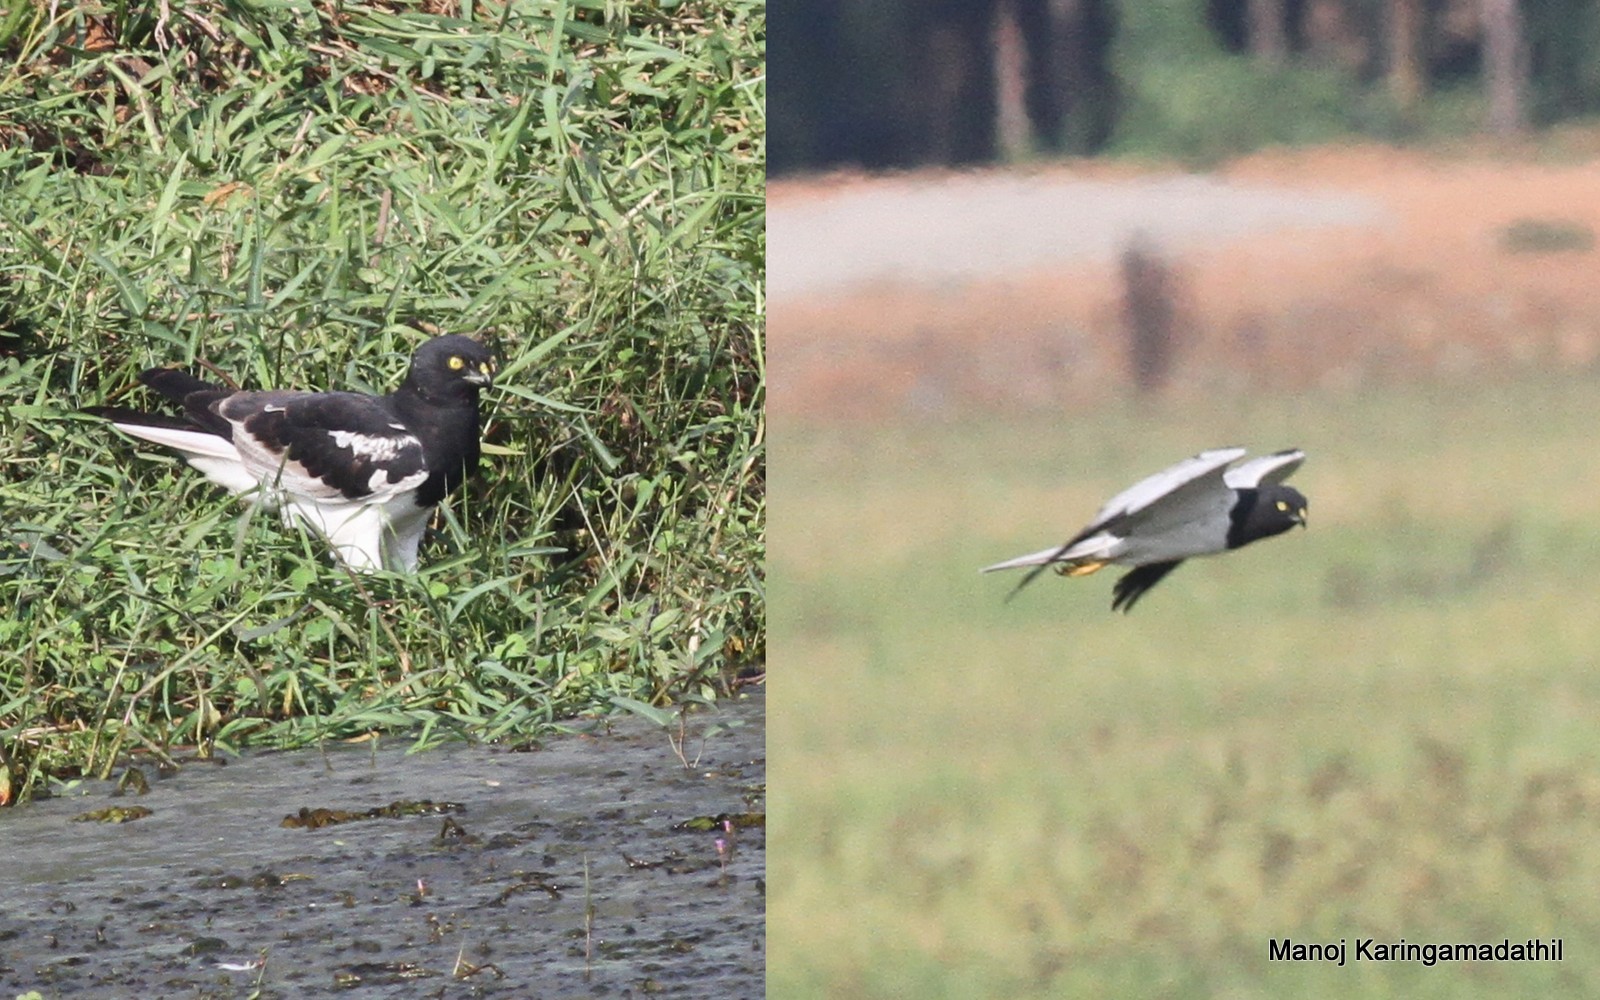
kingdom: Animalia
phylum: Chordata
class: Aves
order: Accipitriformes
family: Accipitridae
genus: Circus
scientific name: Circus melanoleucos
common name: Pied harrier
